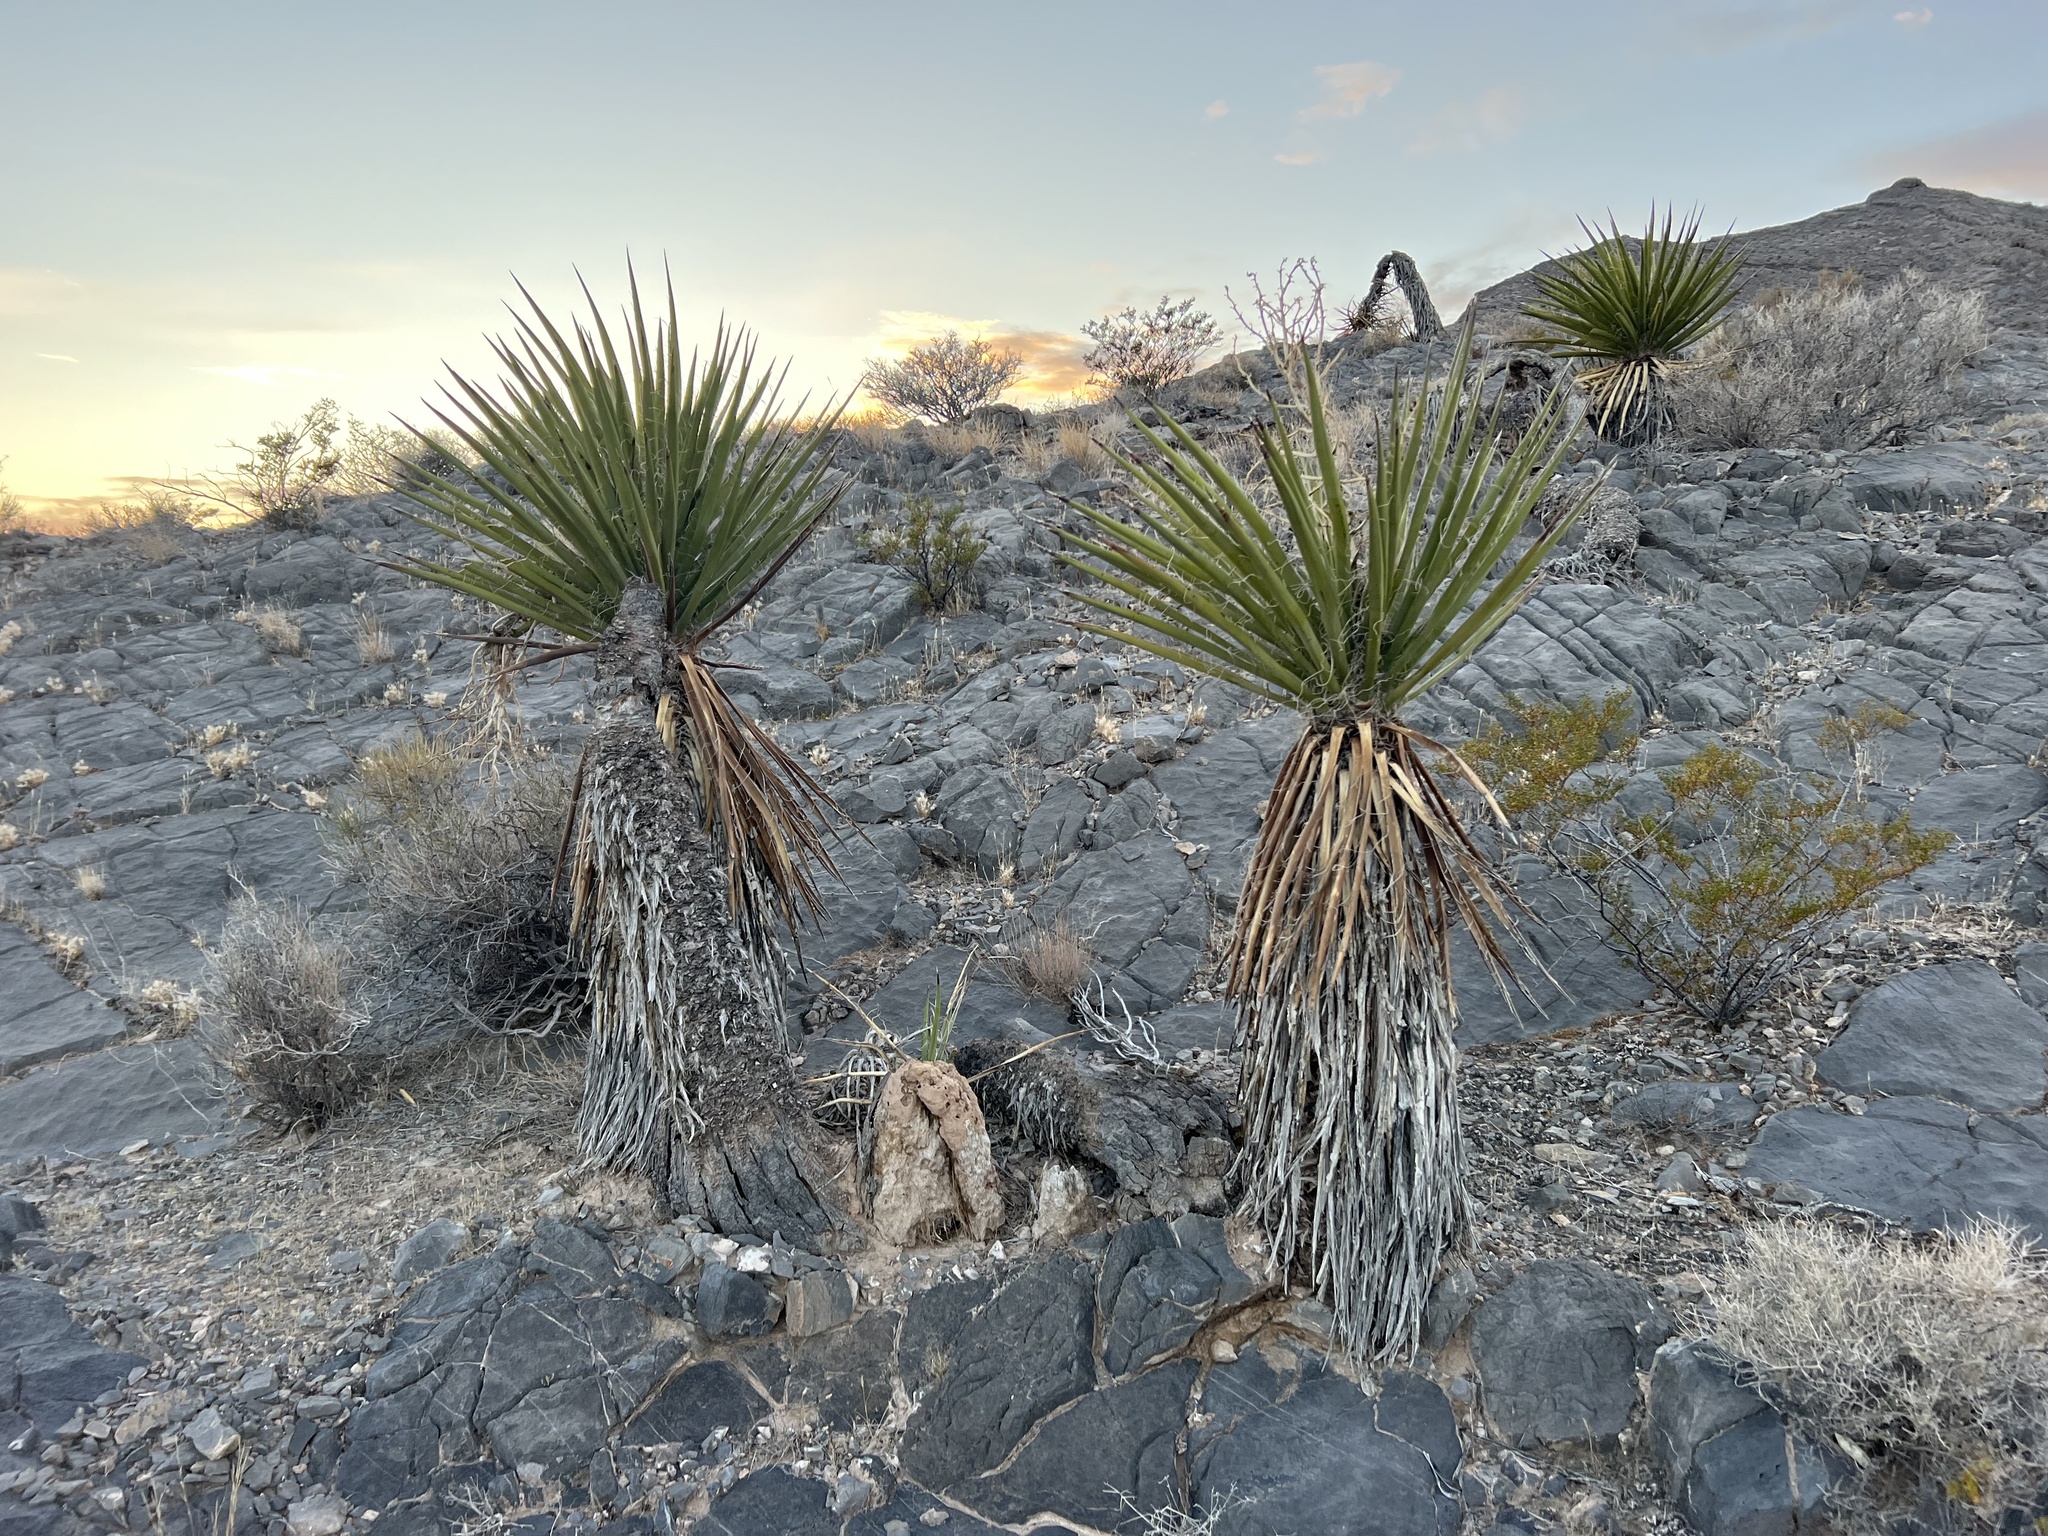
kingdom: Plantae
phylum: Tracheophyta
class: Liliopsida
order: Asparagales
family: Asparagaceae
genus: Yucca
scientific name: Yucca schidigera
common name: Mojave yucca
